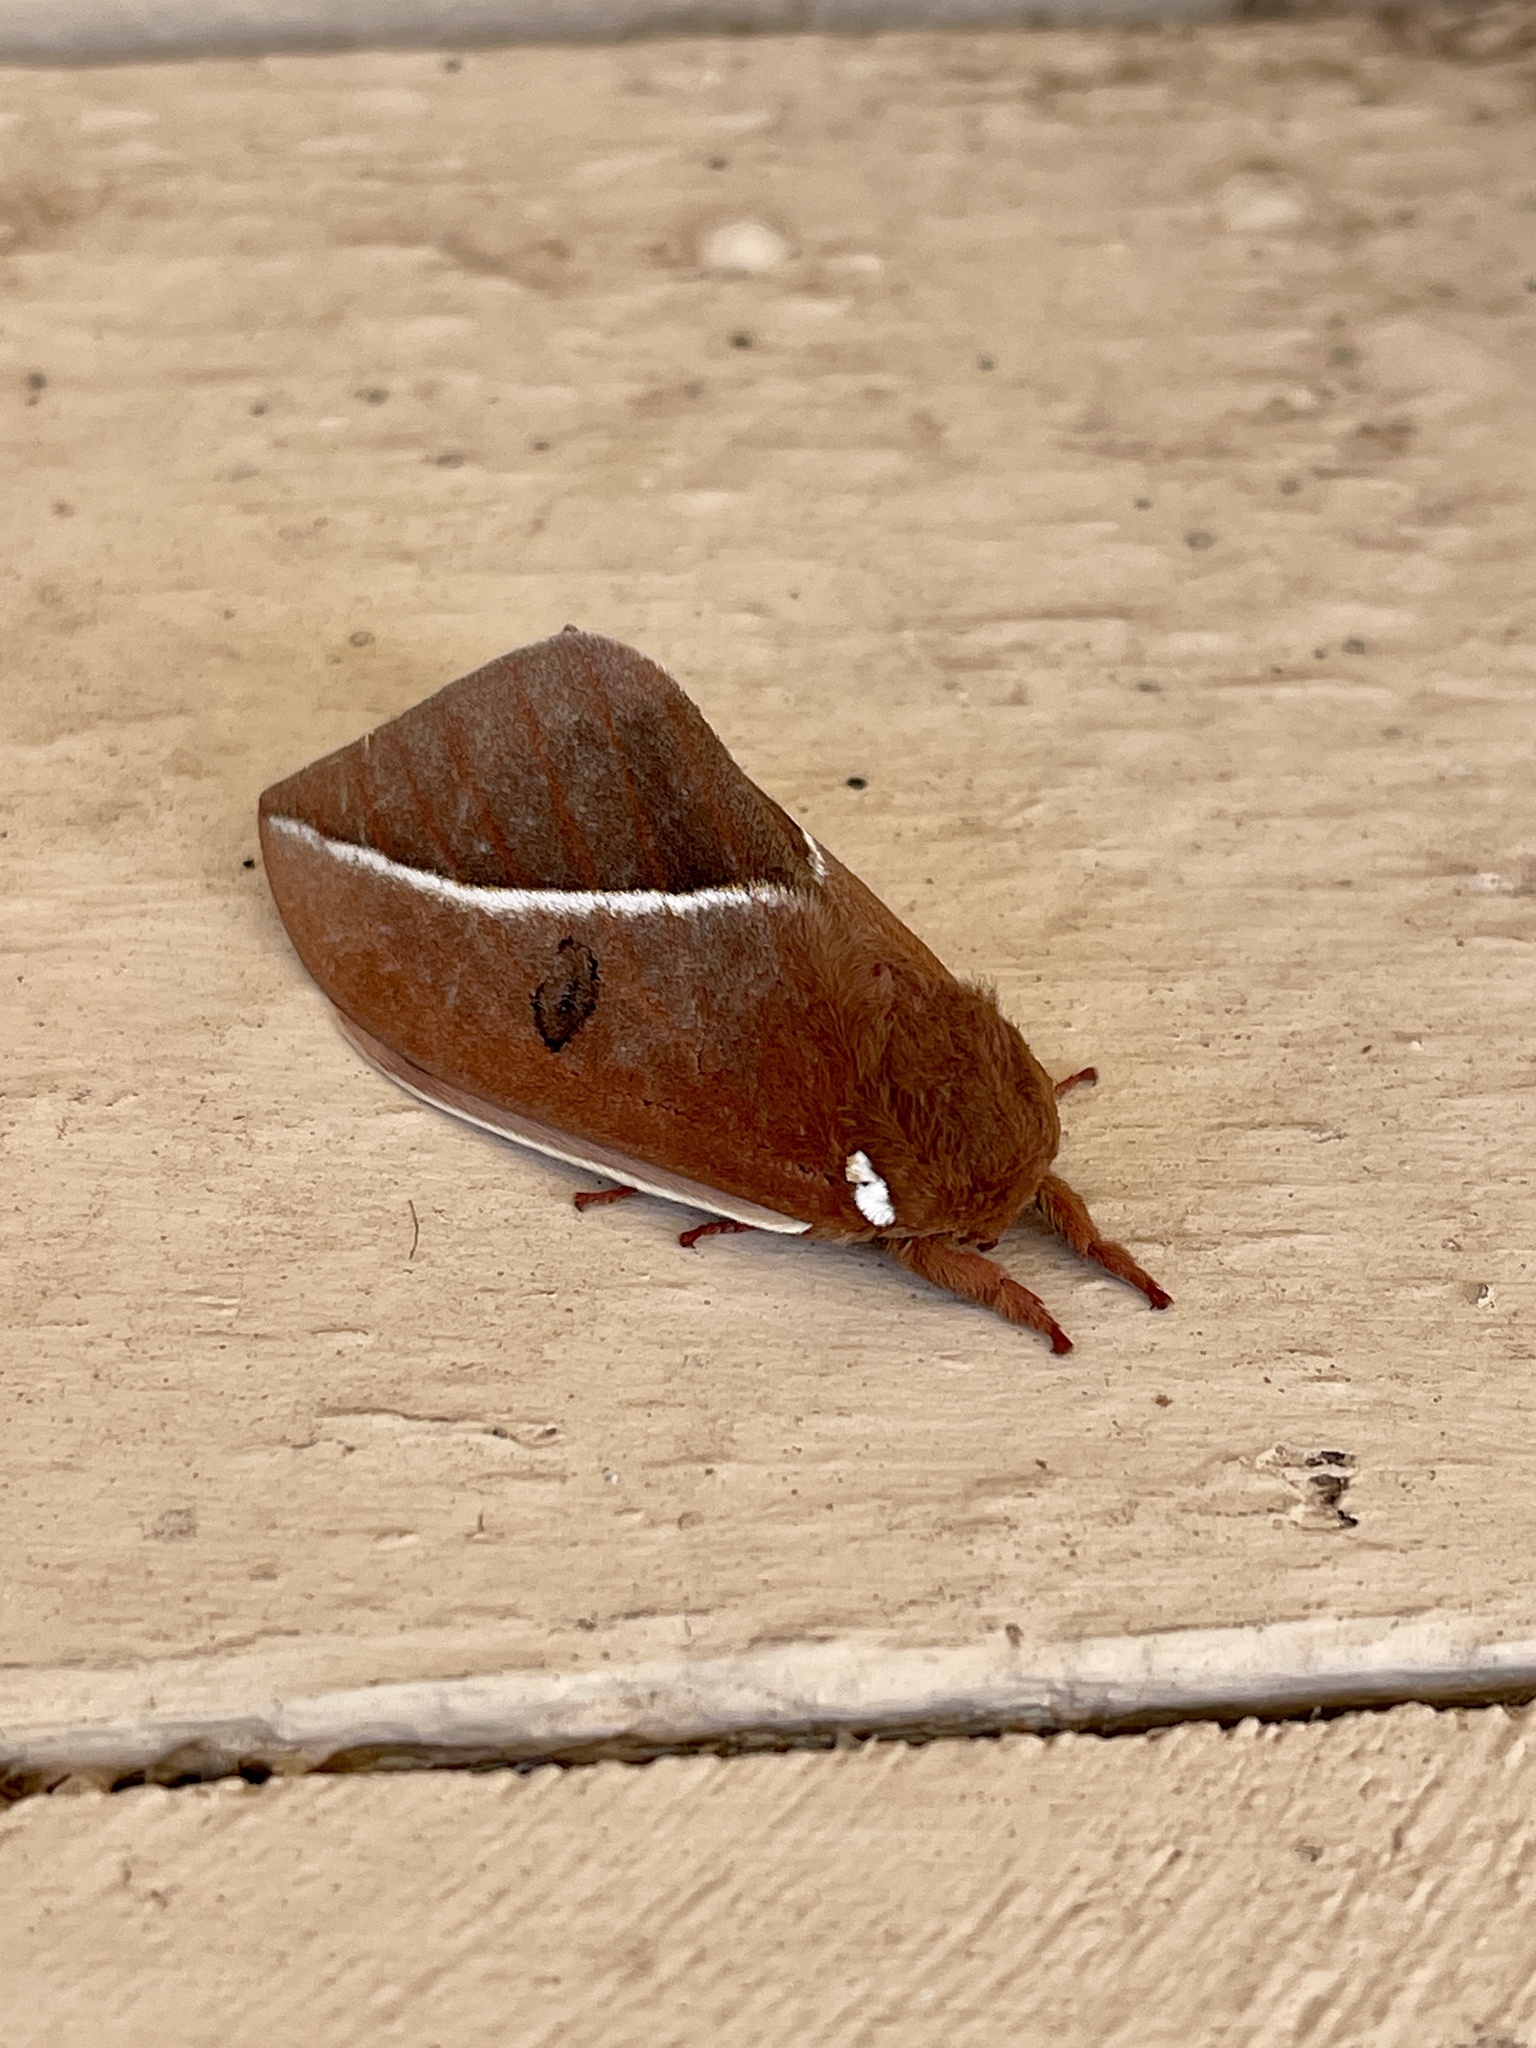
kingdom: Animalia
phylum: Arthropoda
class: Insecta
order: Lepidoptera
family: Saturniidae
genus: Automeris
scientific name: Automeris zephyria
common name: Zephyr eyed silkmoth
